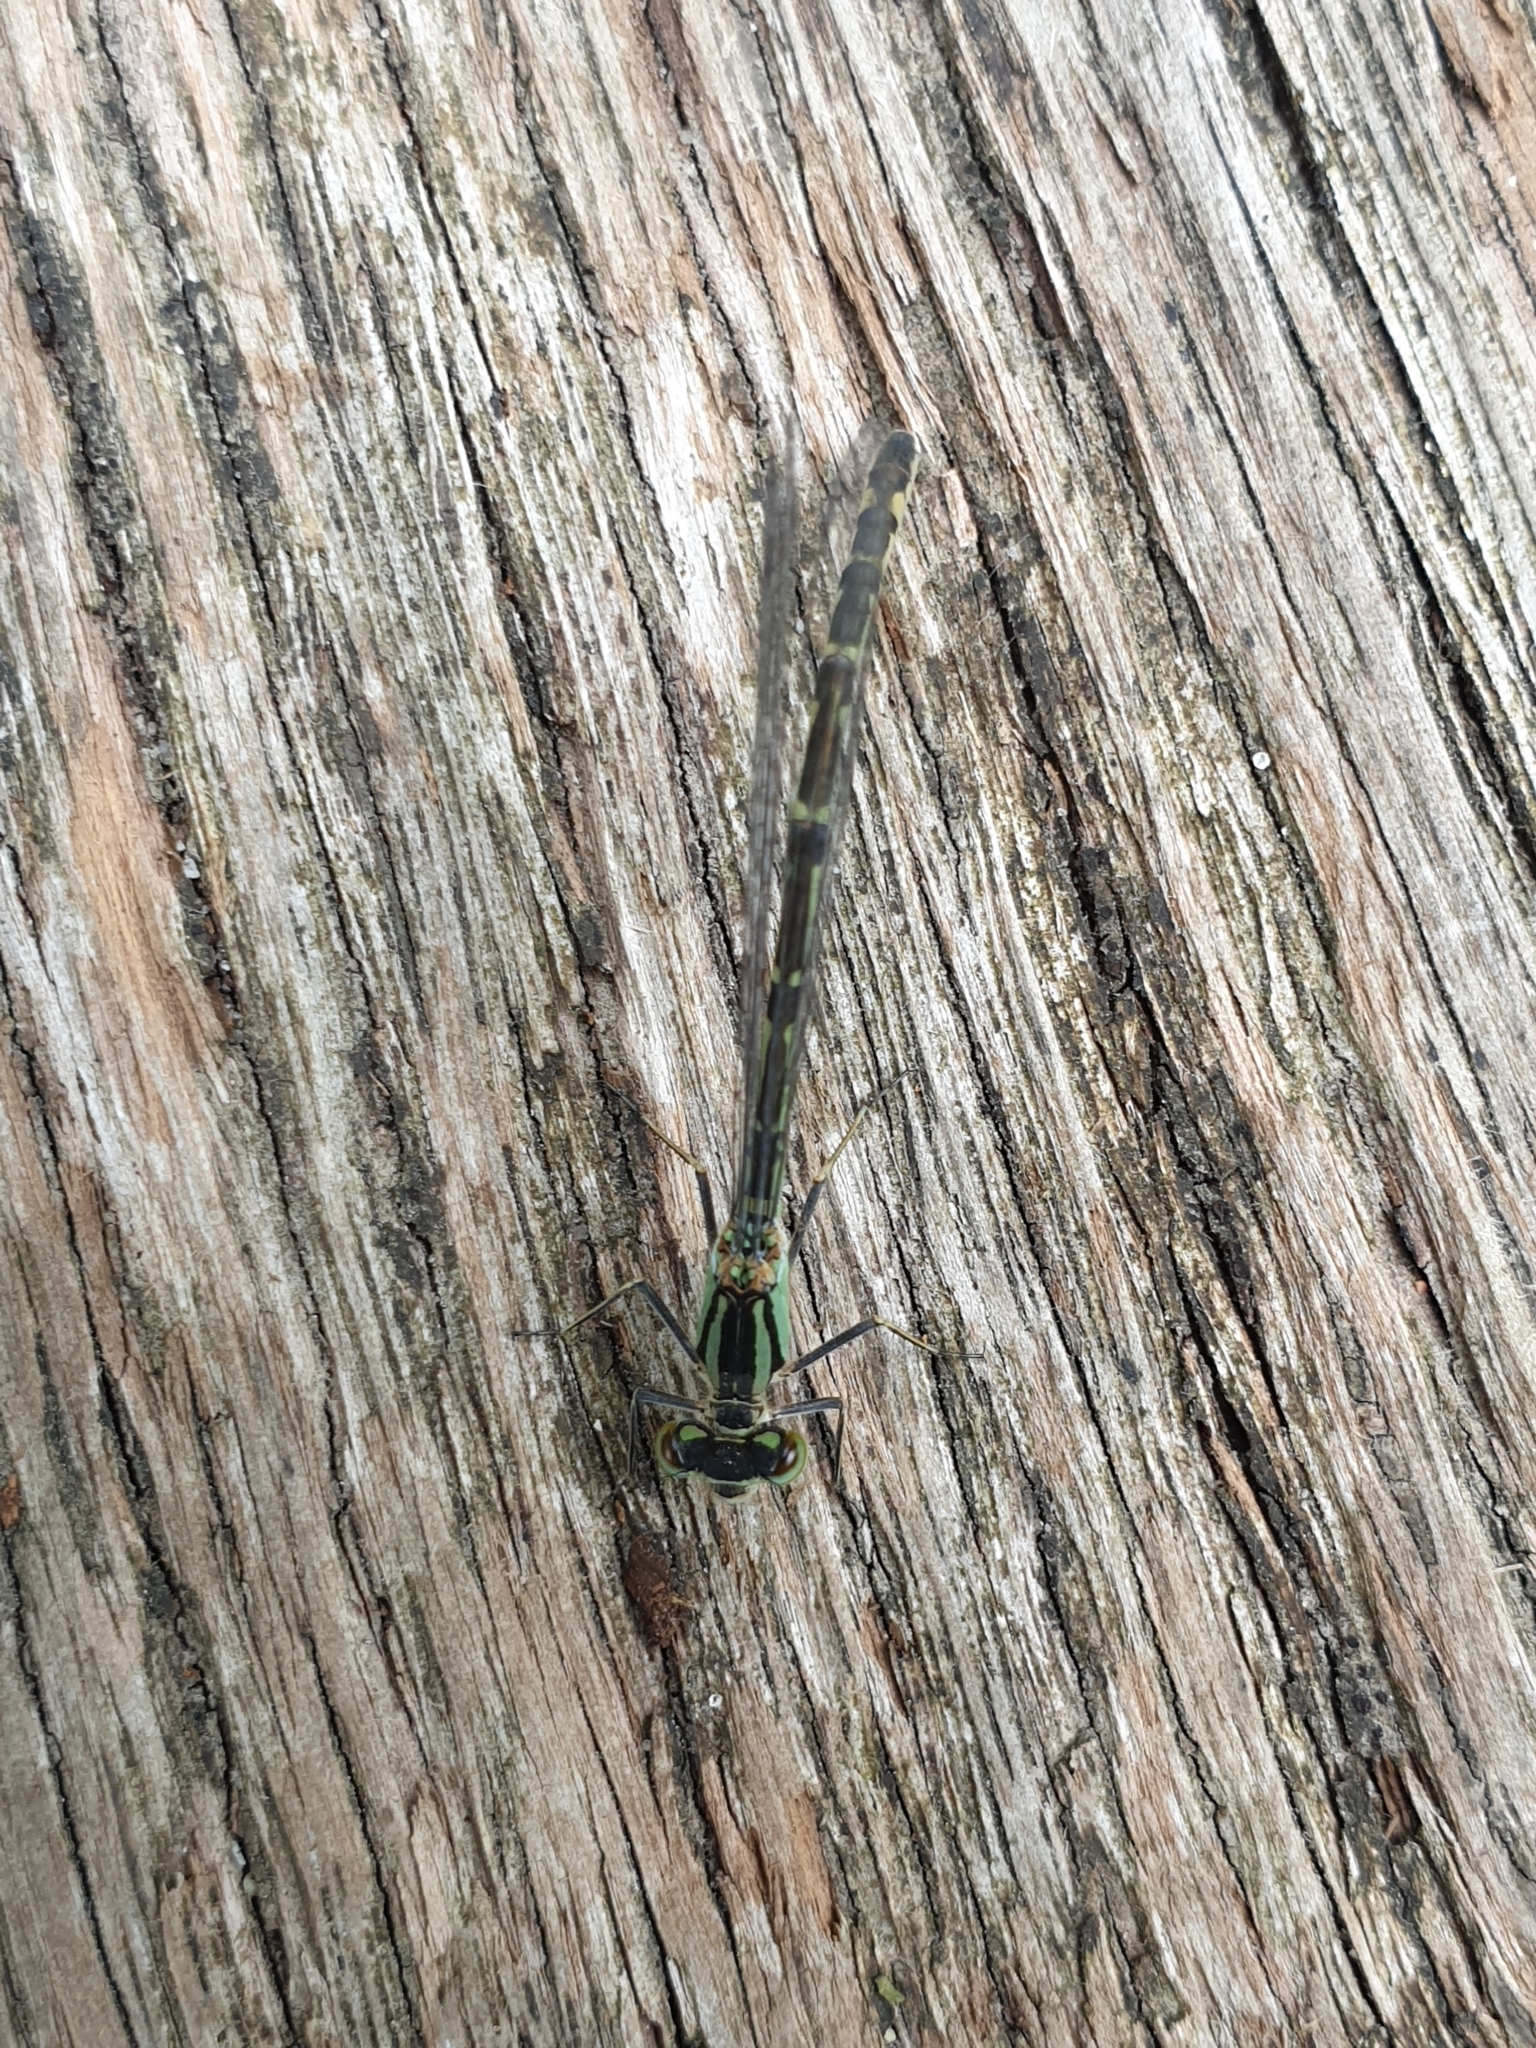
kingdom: Animalia
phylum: Arthropoda
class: Insecta
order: Odonata
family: Coenagrionidae
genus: Enallagma
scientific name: Enallagma cyathigerum
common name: Common blue damselfly
